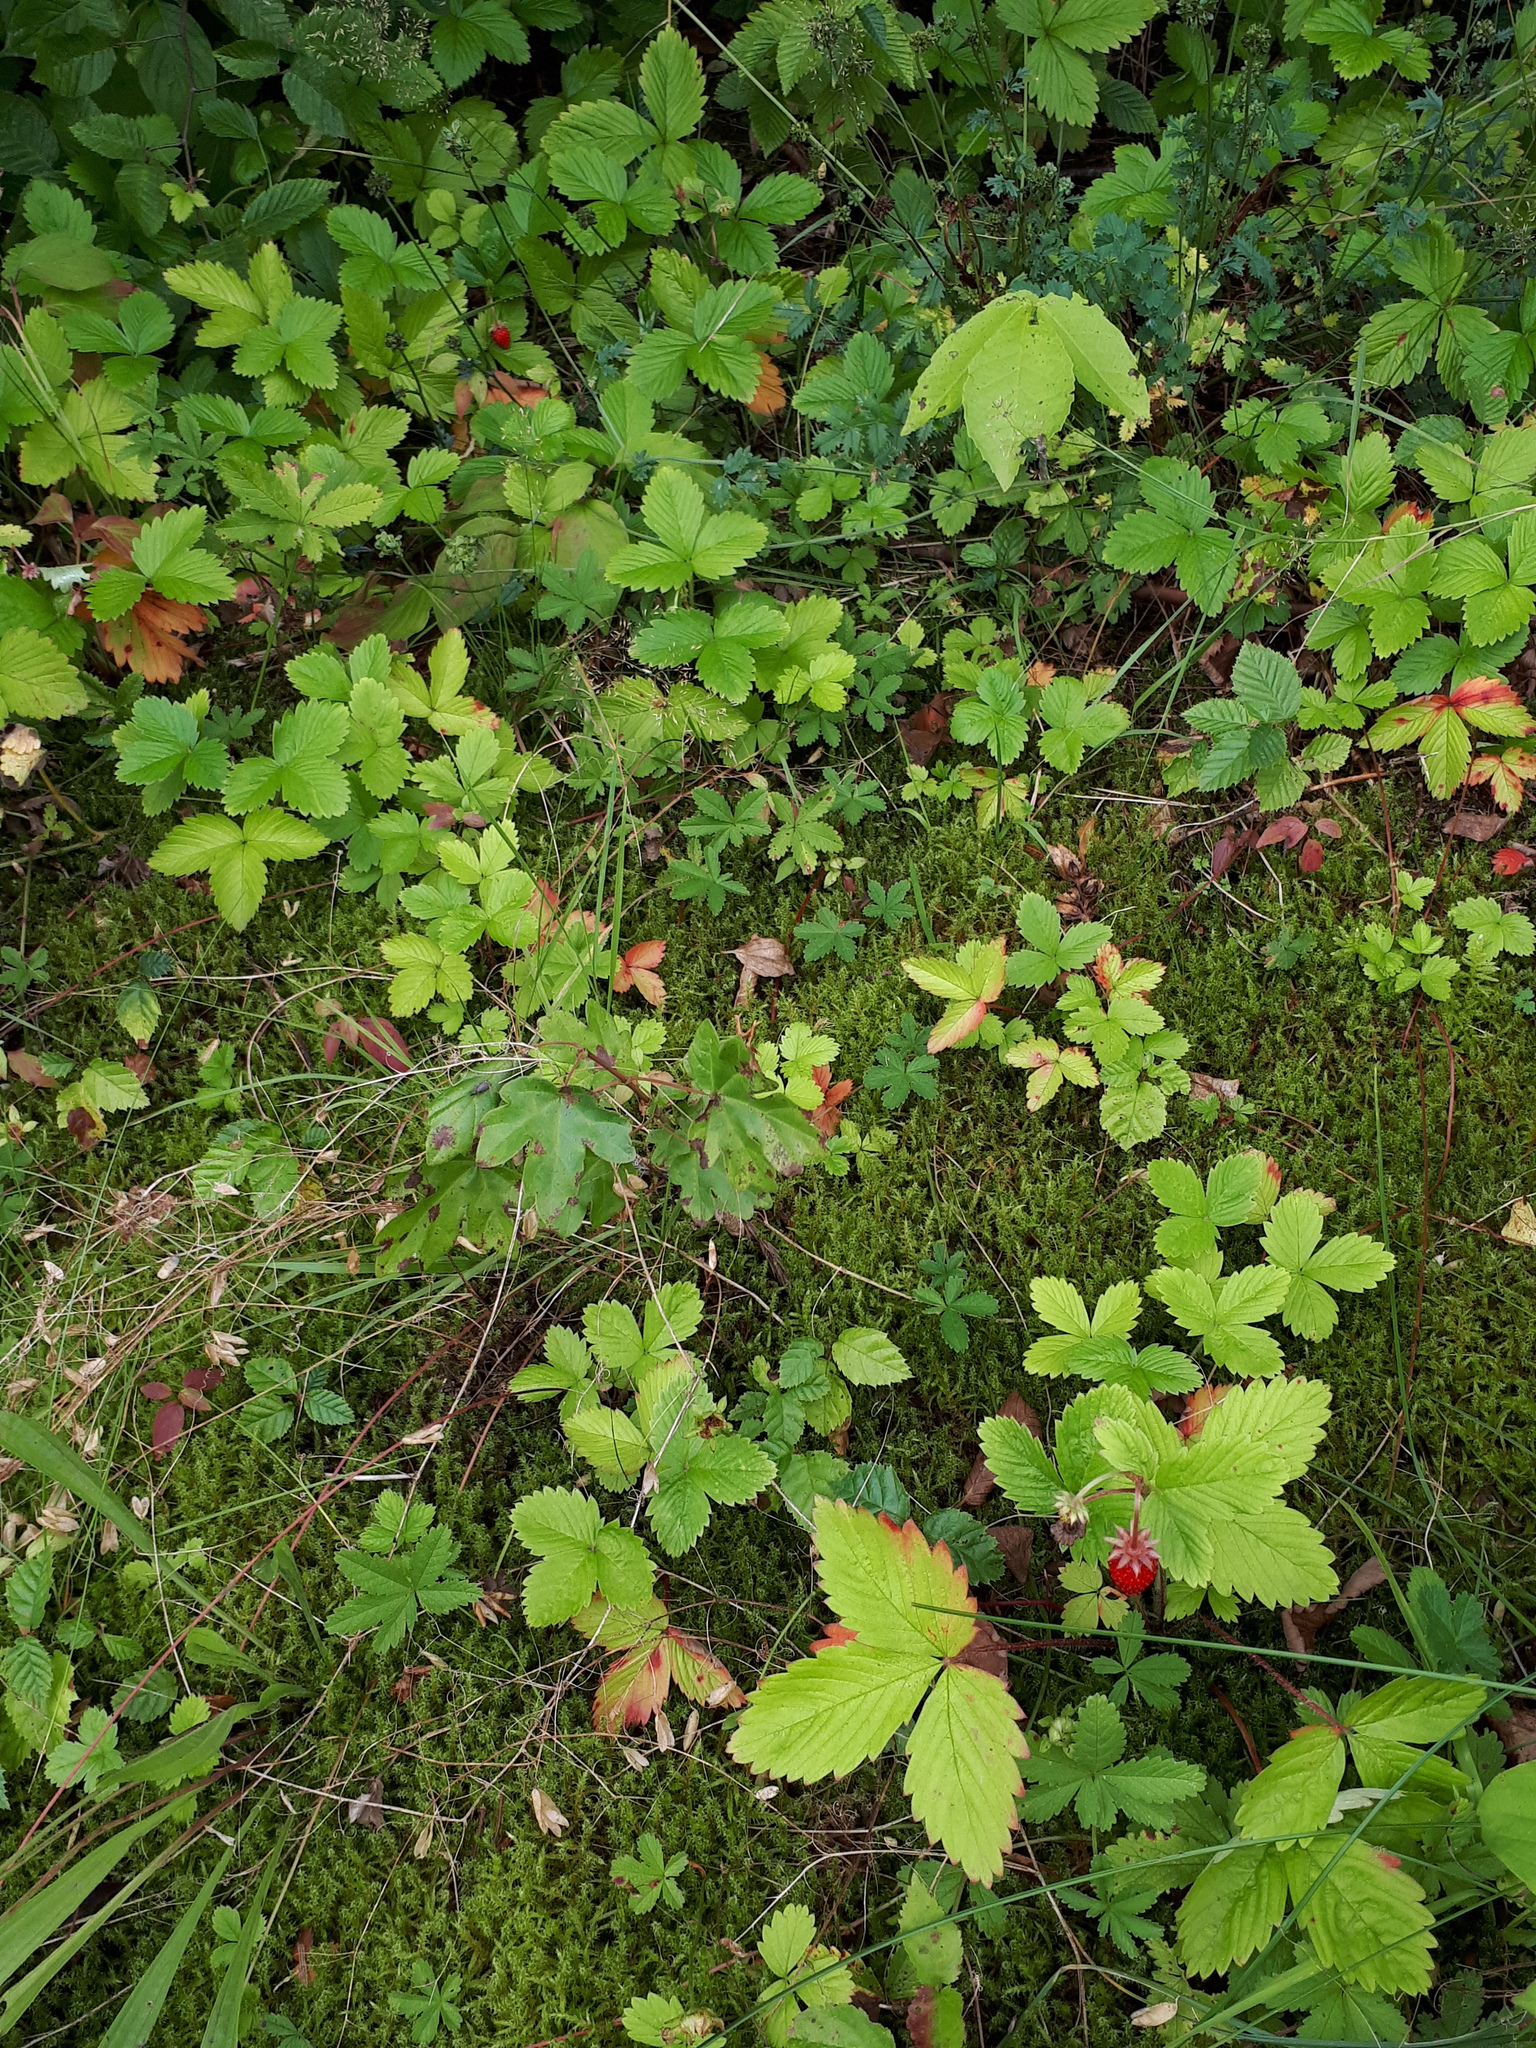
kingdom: Plantae
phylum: Tracheophyta
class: Magnoliopsida
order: Rosales
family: Rosaceae
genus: Fragaria
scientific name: Fragaria vesca
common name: Wild strawberry
